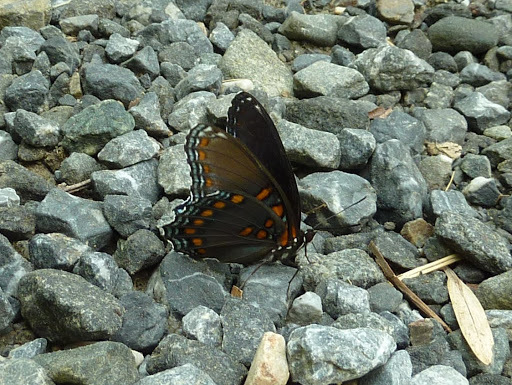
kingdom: Animalia
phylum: Arthropoda
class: Insecta
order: Lepidoptera
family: Nymphalidae
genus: Limenitis
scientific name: Limenitis astyanax
